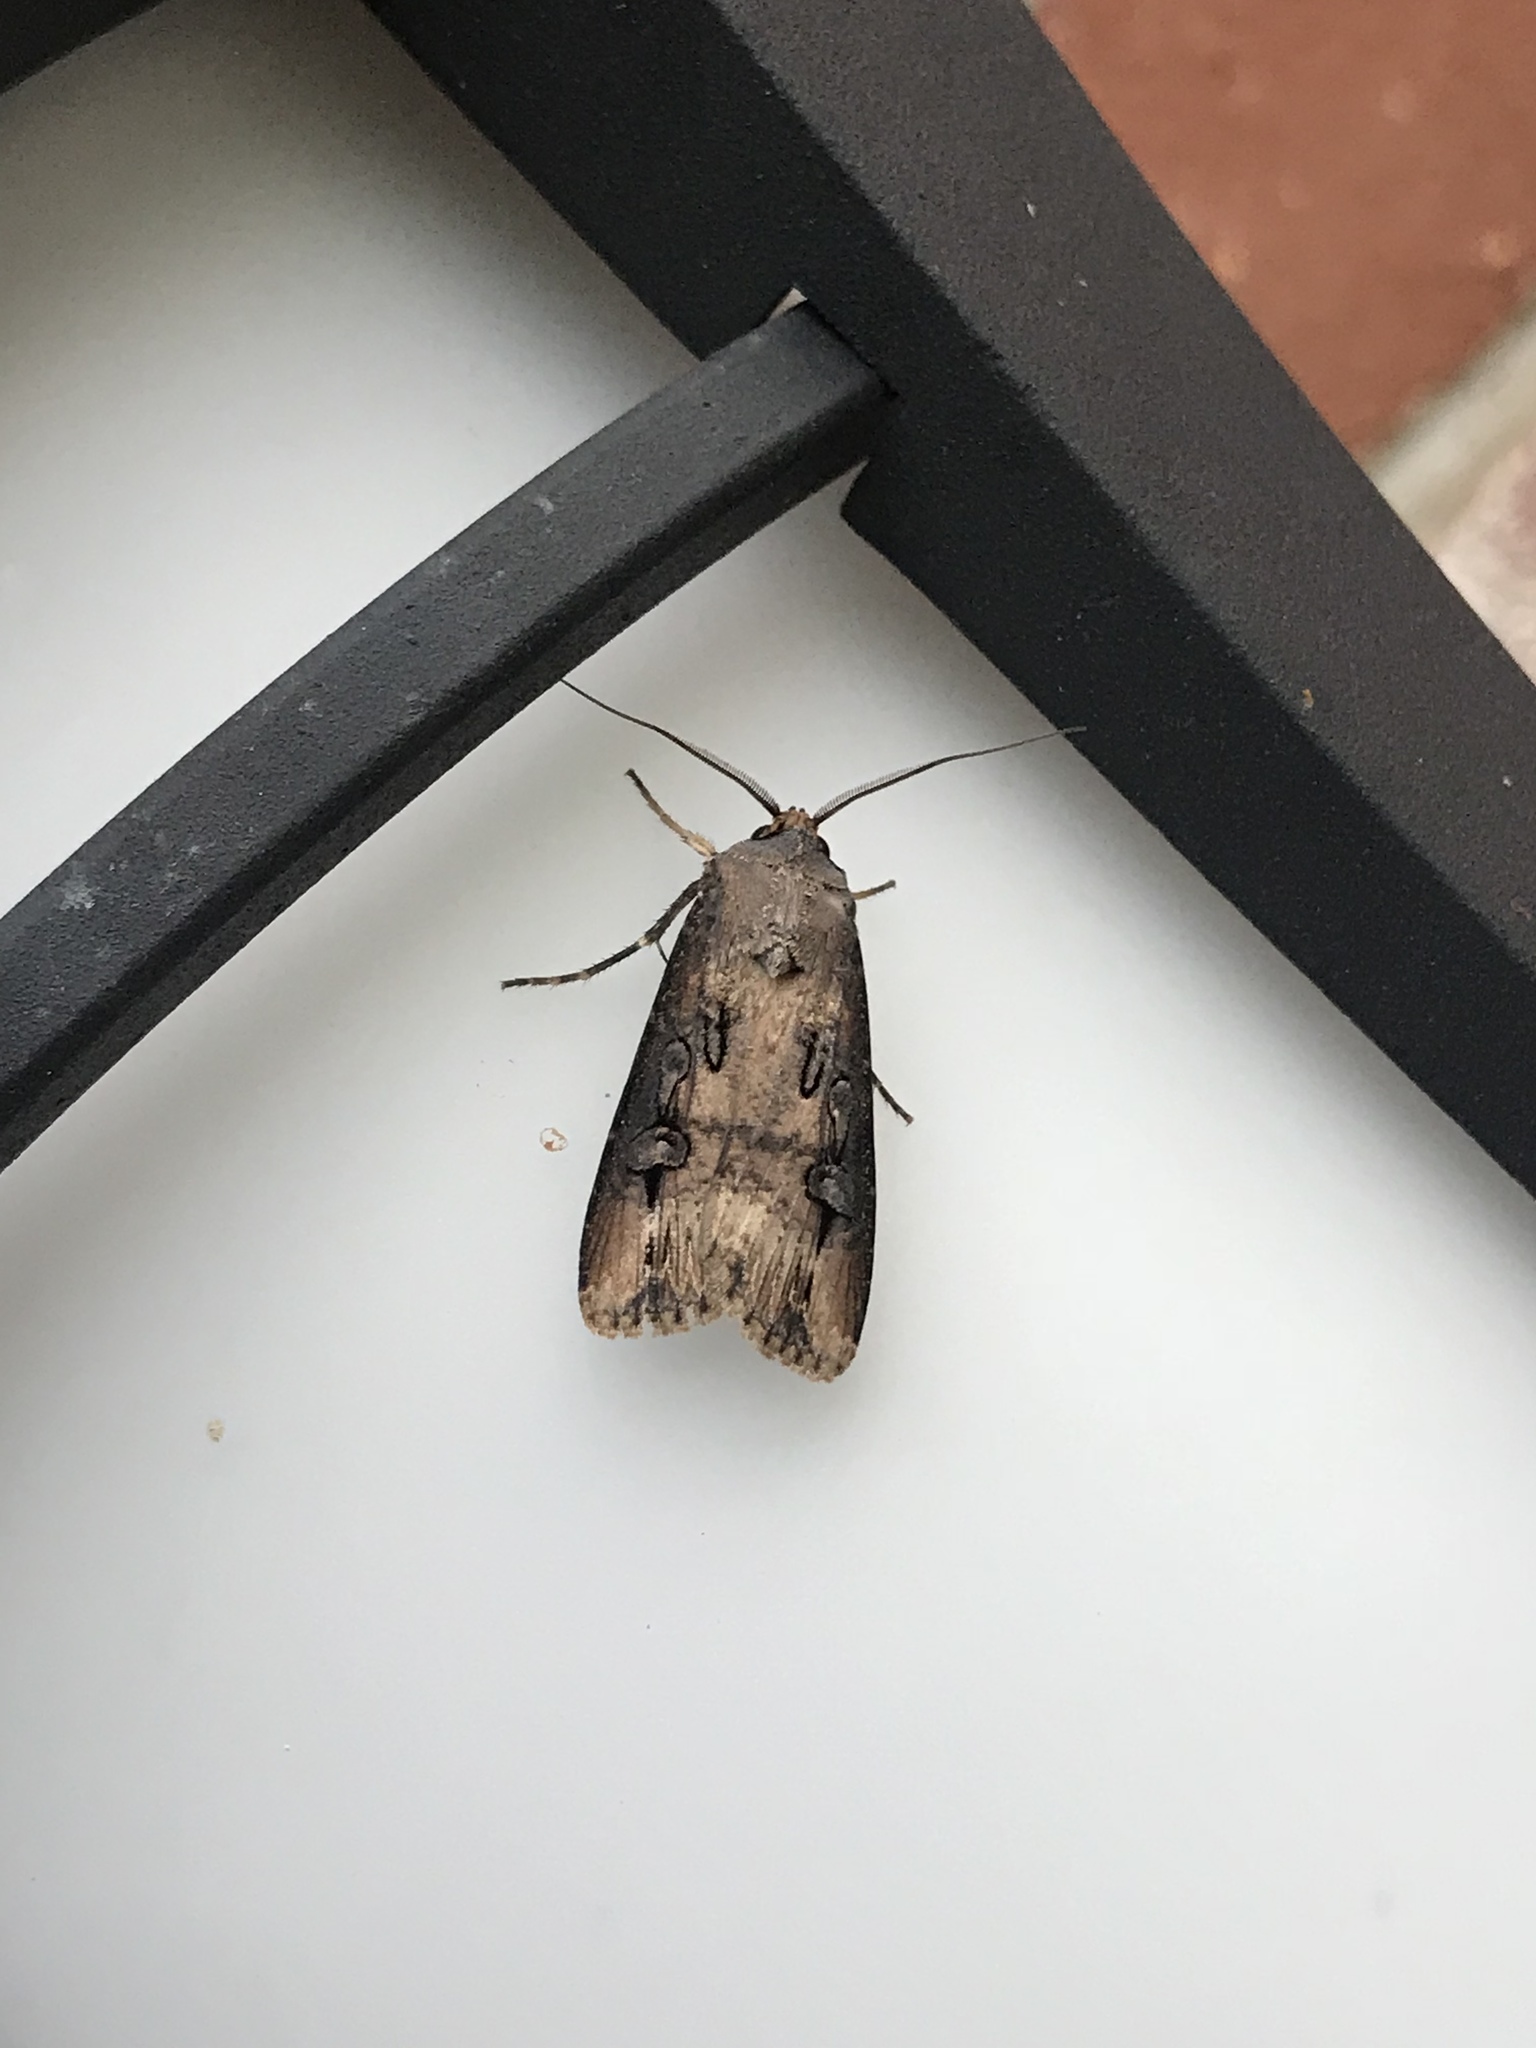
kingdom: Animalia
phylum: Arthropoda
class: Insecta
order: Lepidoptera
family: Noctuidae
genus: Agrotis
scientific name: Agrotis ipsilon
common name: Dark sword-grass
